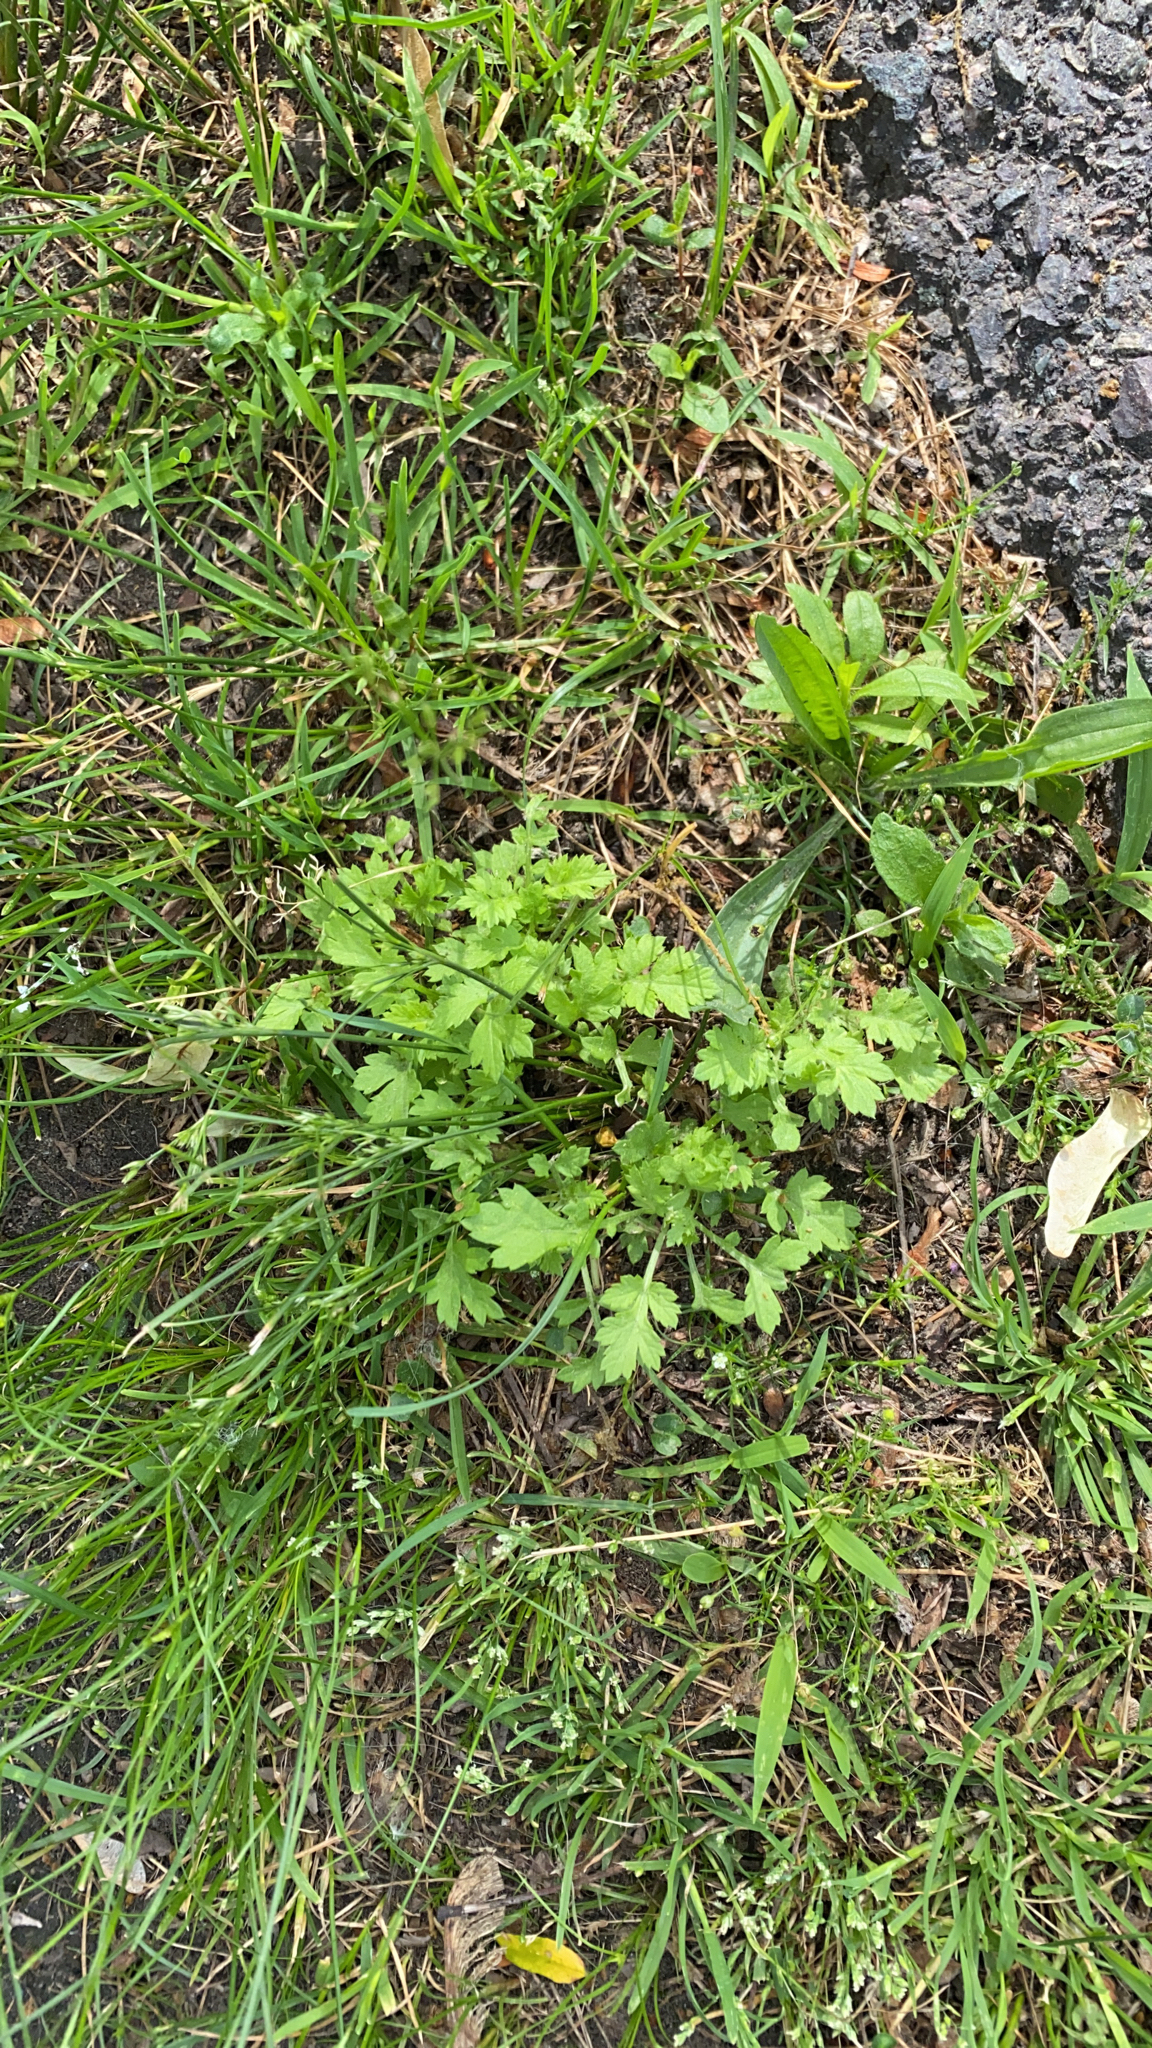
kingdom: Plantae
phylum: Tracheophyta
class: Magnoliopsida
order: Asterales
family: Asteraceae
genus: Artemisia
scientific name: Artemisia vulgaris
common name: Mugwort
